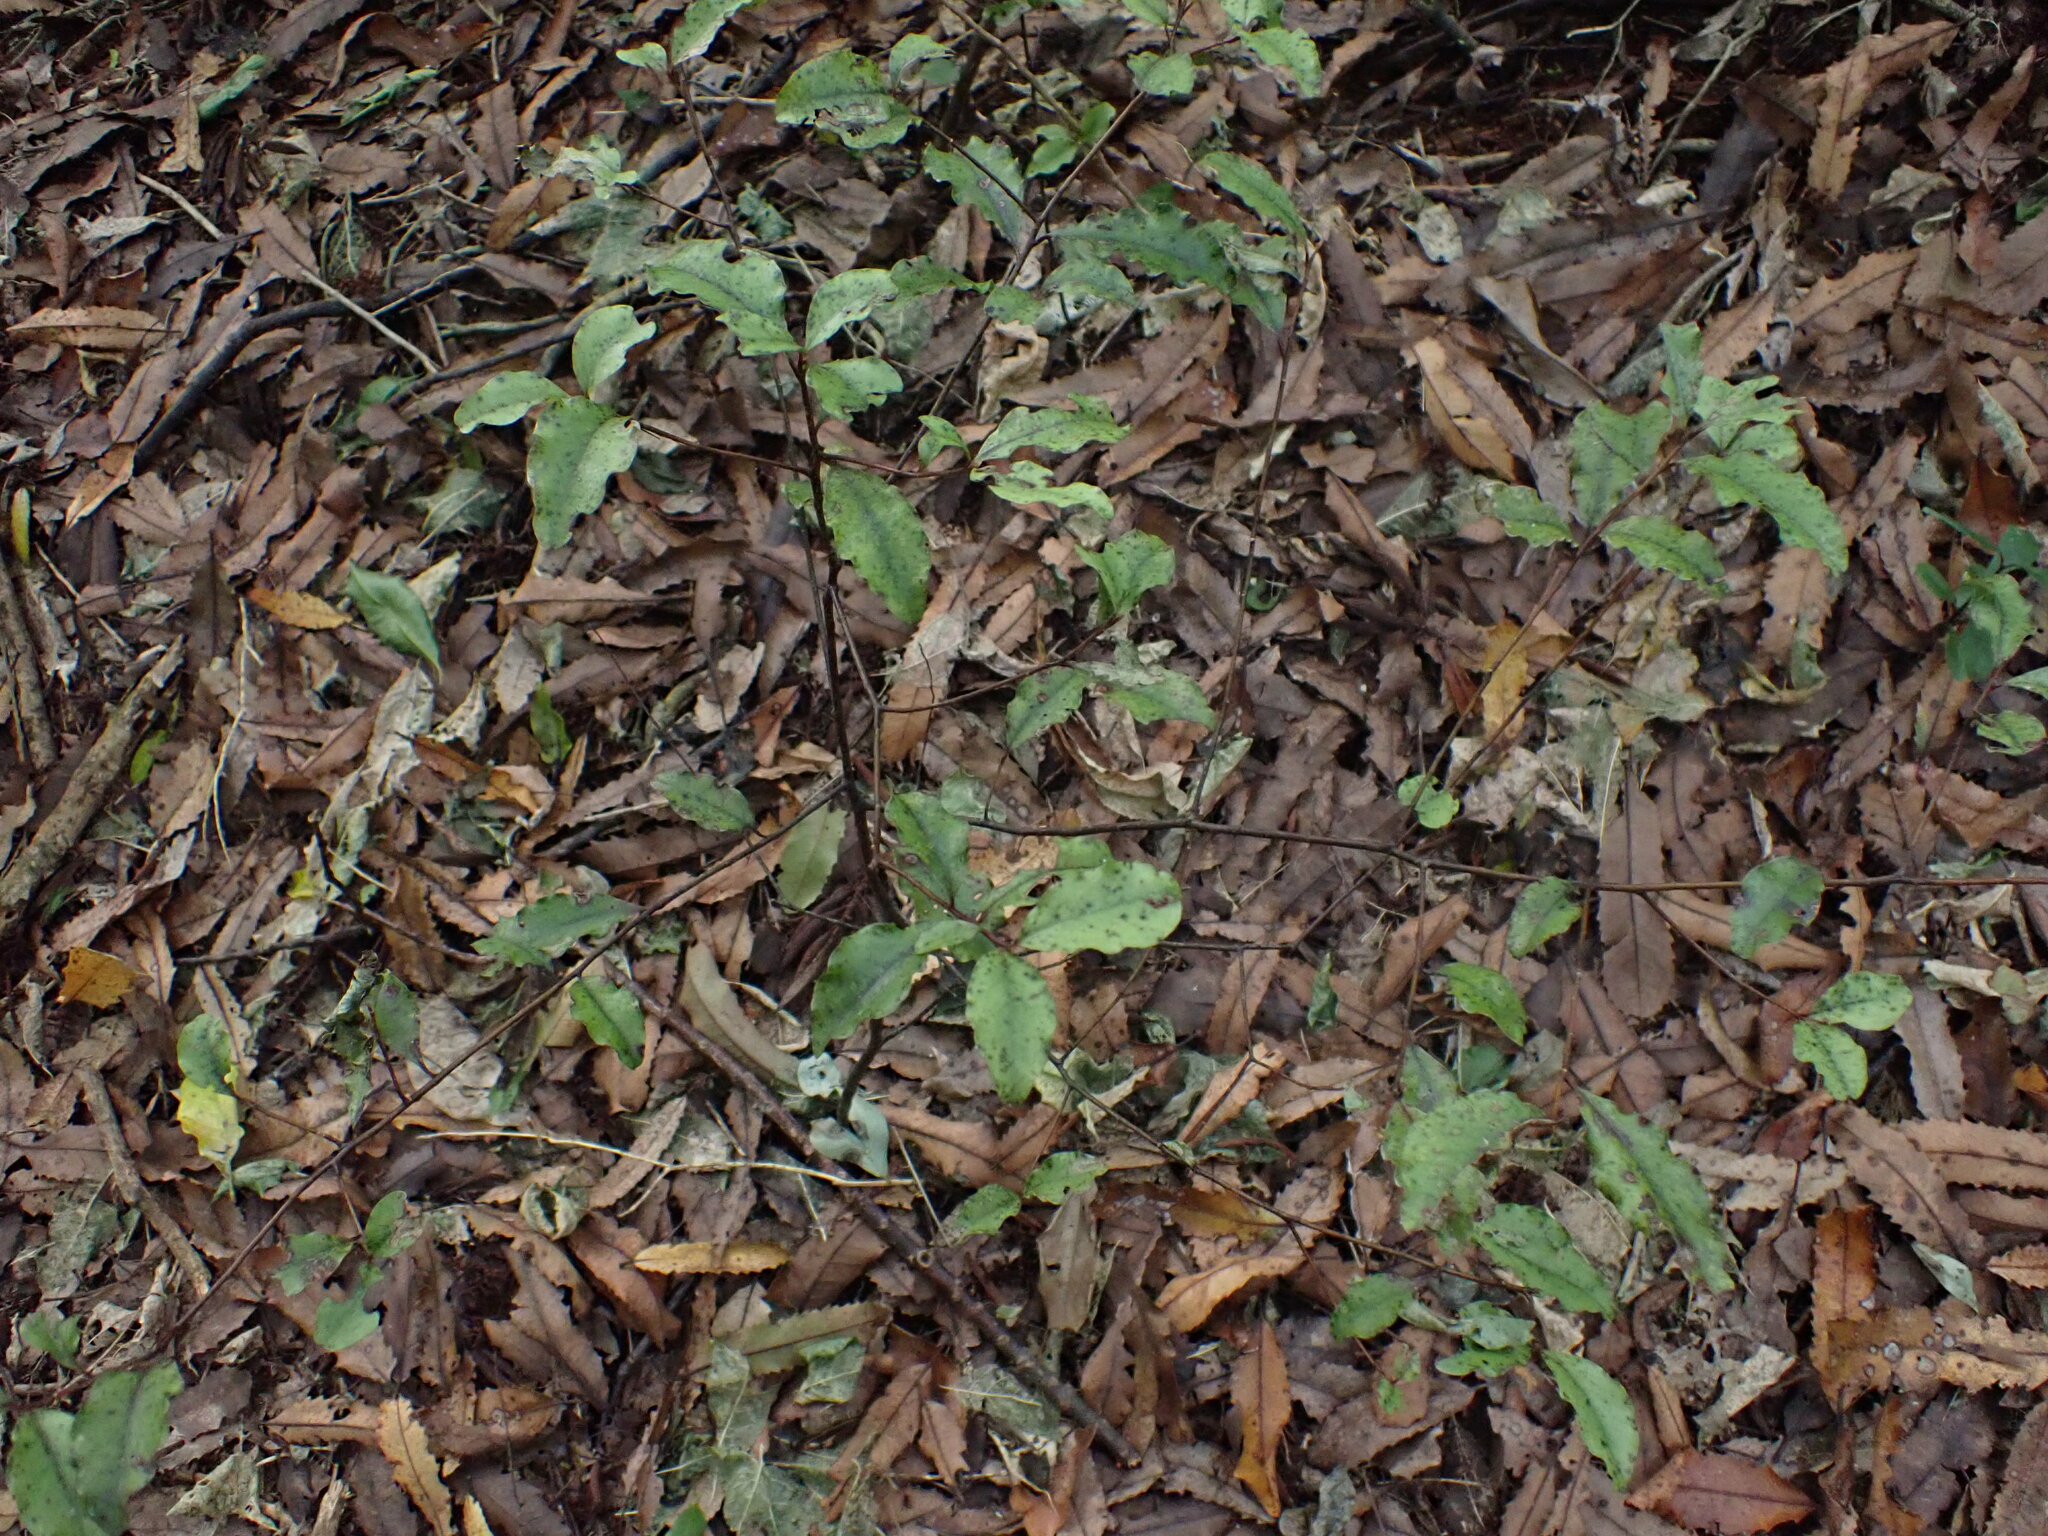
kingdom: Plantae
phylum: Tracheophyta
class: Magnoliopsida
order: Ericales
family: Primulaceae
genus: Myrsine
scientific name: Myrsine australis
